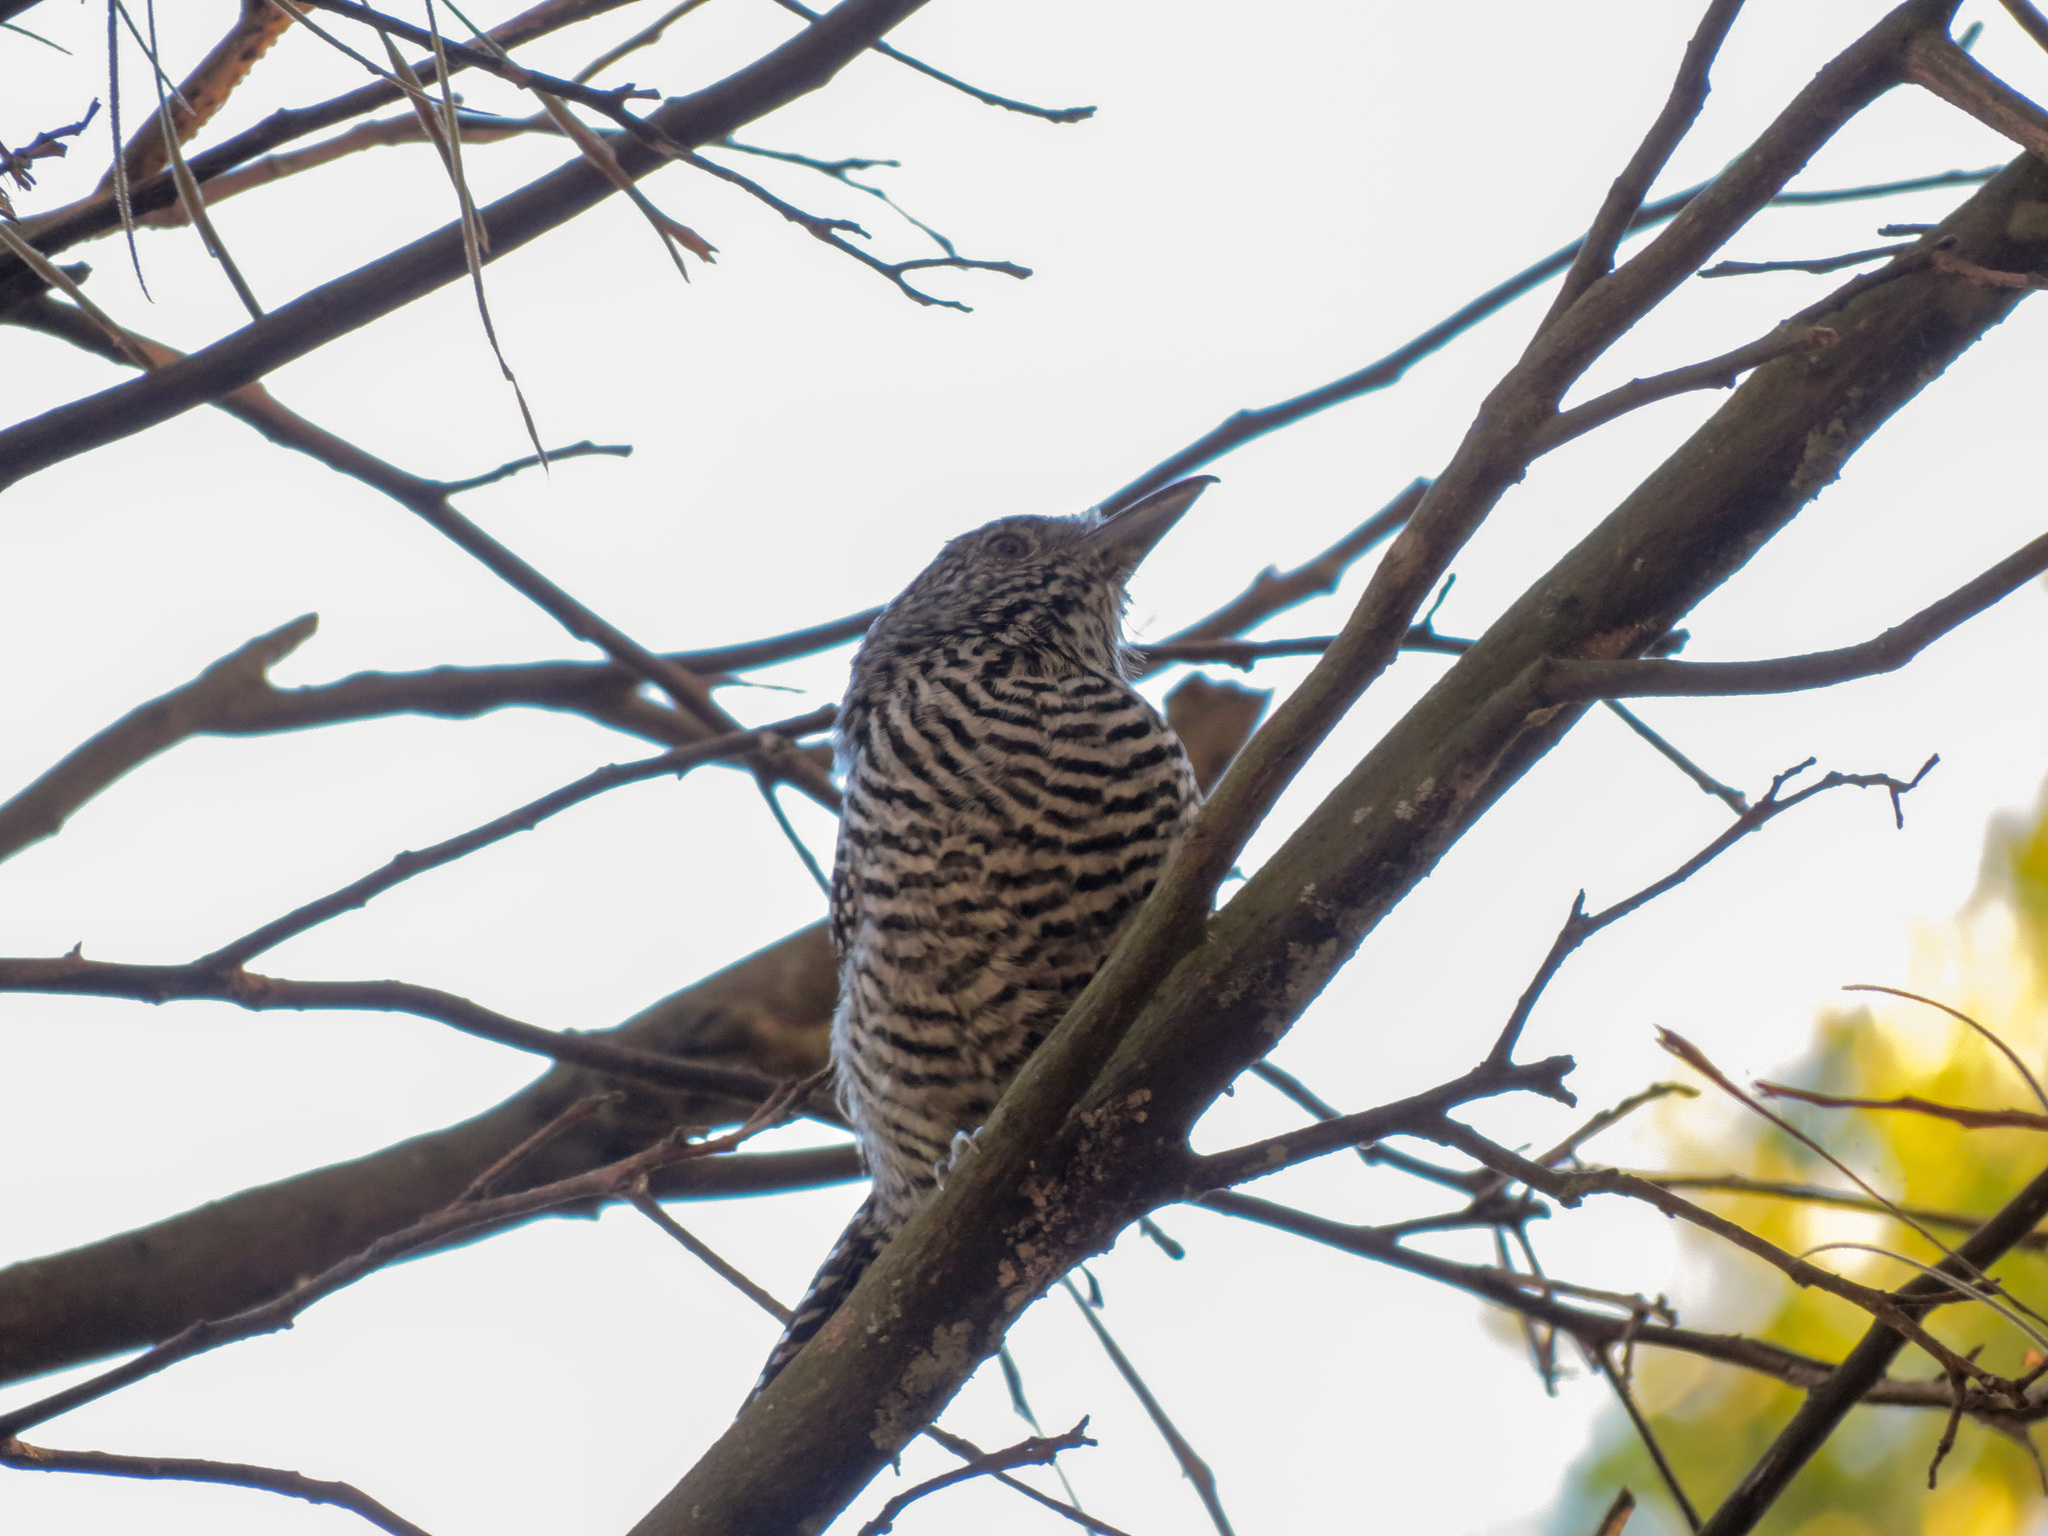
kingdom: Animalia
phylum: Chordata
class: Aves
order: Passeriformes
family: Thamnophilidae
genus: Thamnophilus
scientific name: Thamnophilus multistriatus
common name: Bar-crested antshrike
